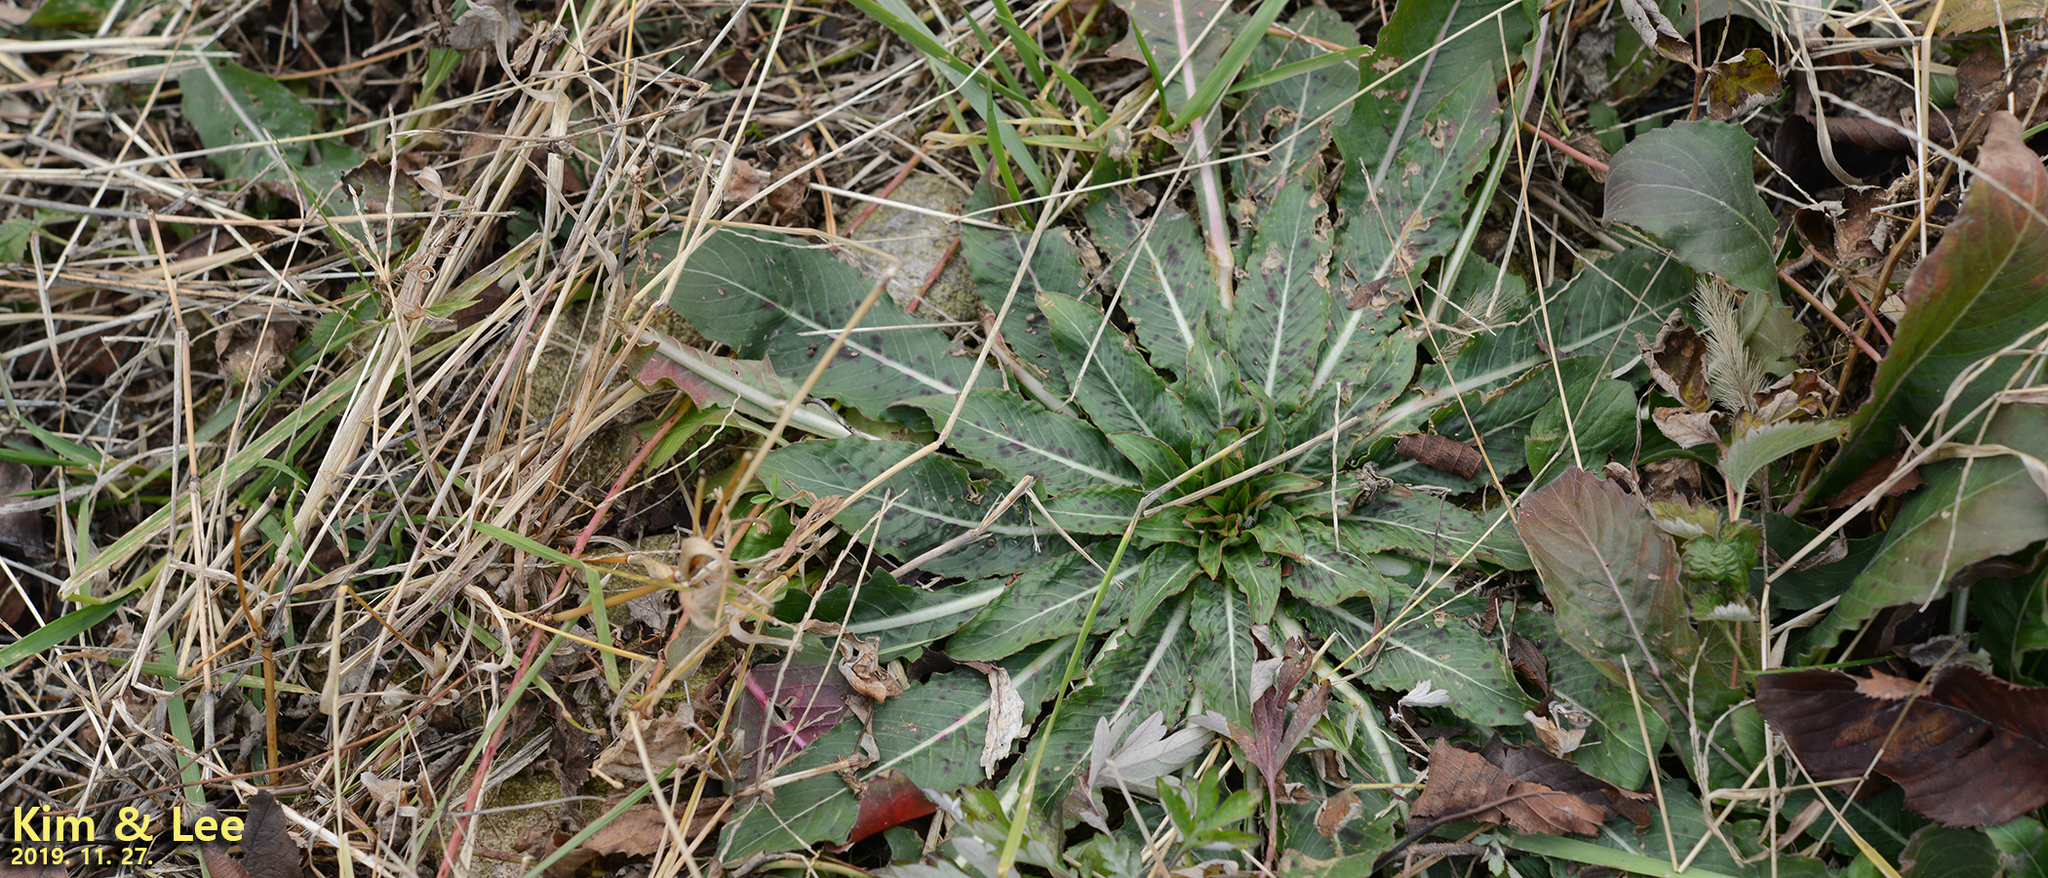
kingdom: Plantae
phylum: Tracheophyta
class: Magnoliopsida
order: Myrtales
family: Onagraceae
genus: Oenothera
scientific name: Oenothera biennis
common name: Common evening-primrose
